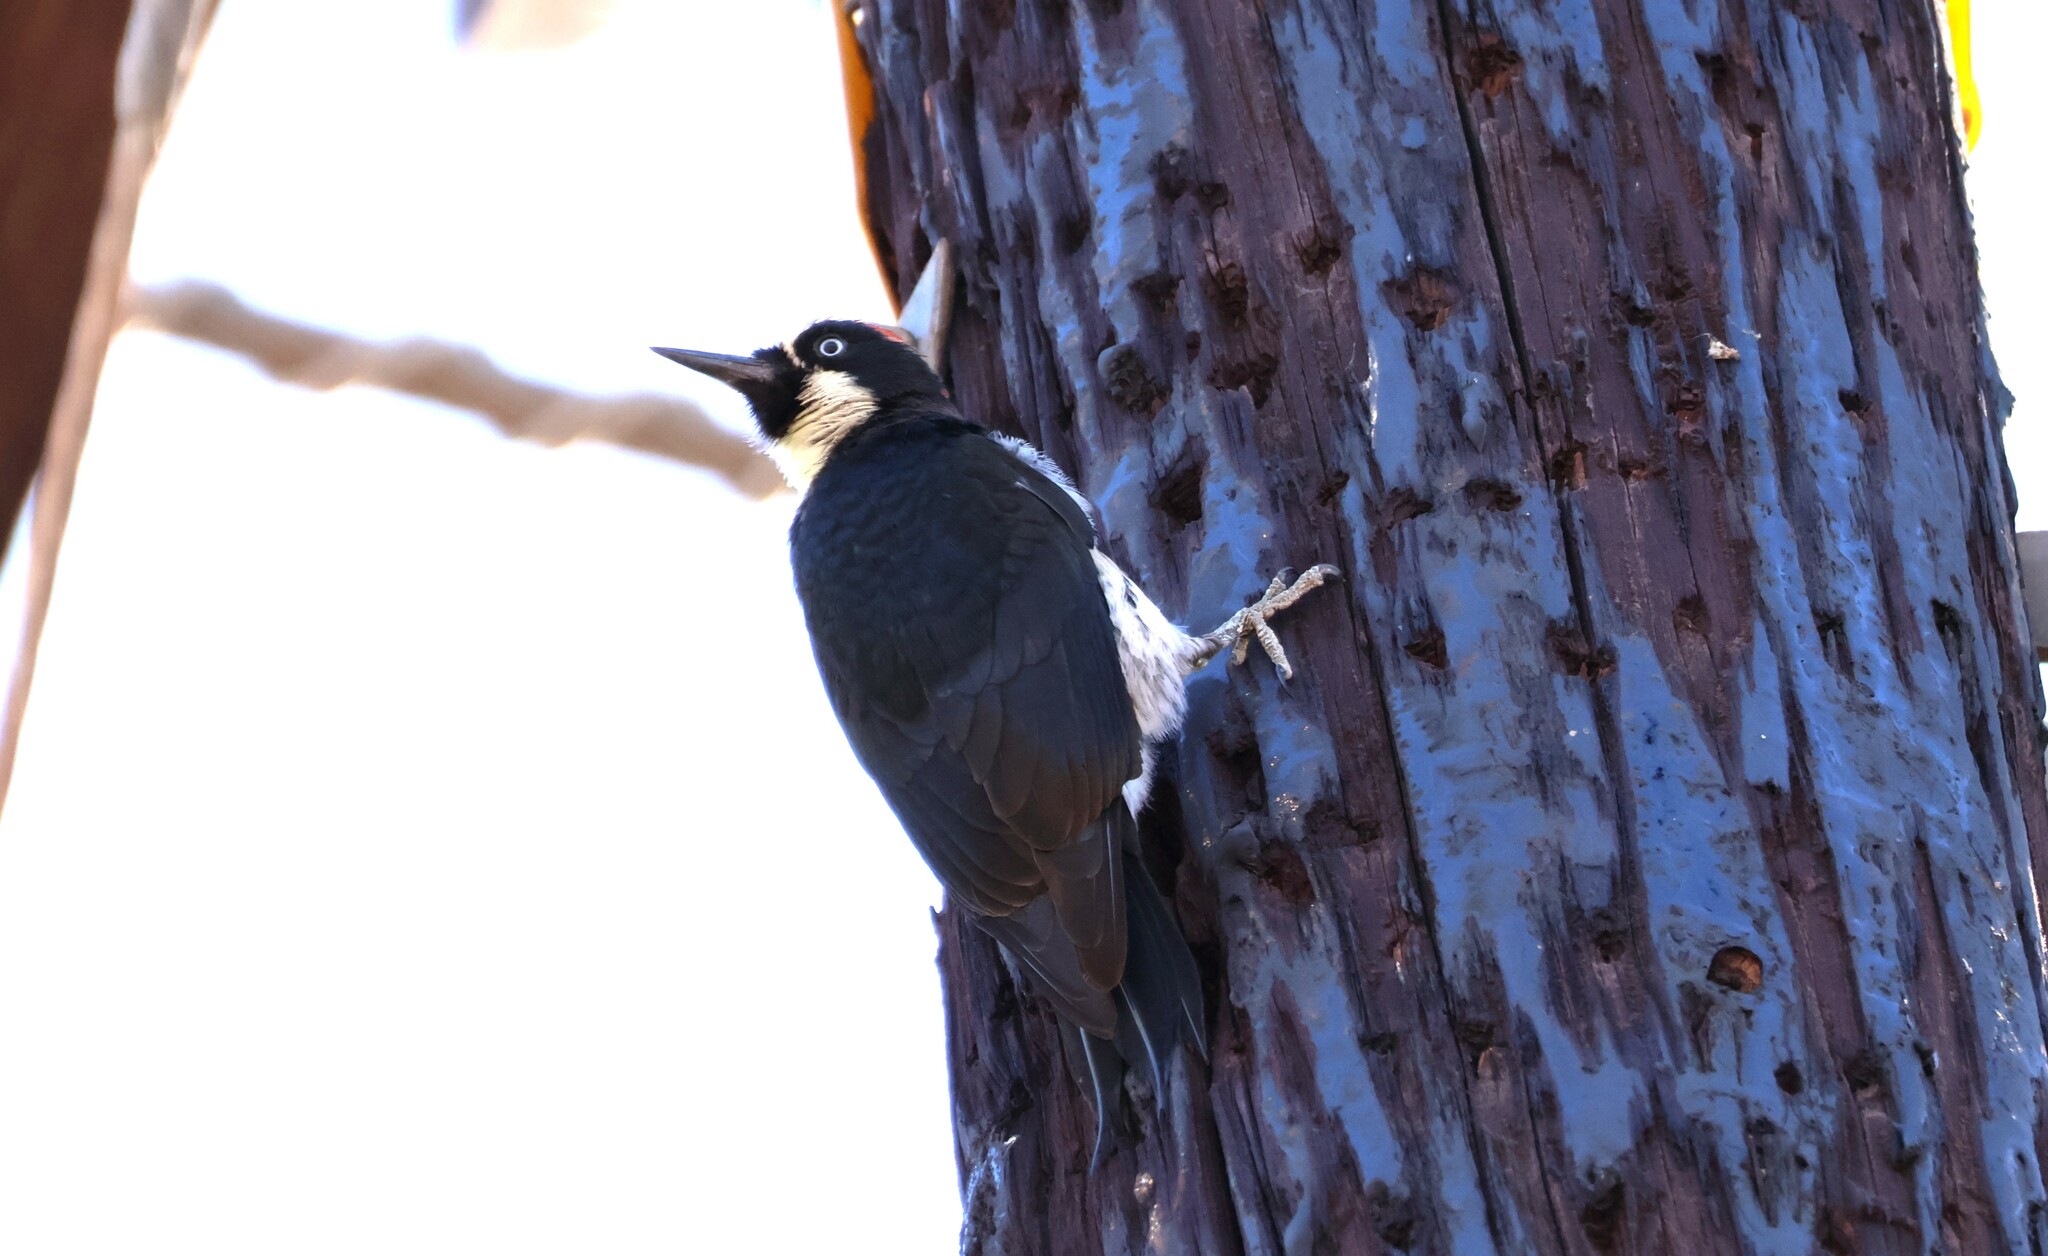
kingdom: Animalia
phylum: Chordata
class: Aves
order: Piciformes
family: Picidae
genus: Melanerpes
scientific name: Melanerpes formicivorus
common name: Acorn woodpecker
